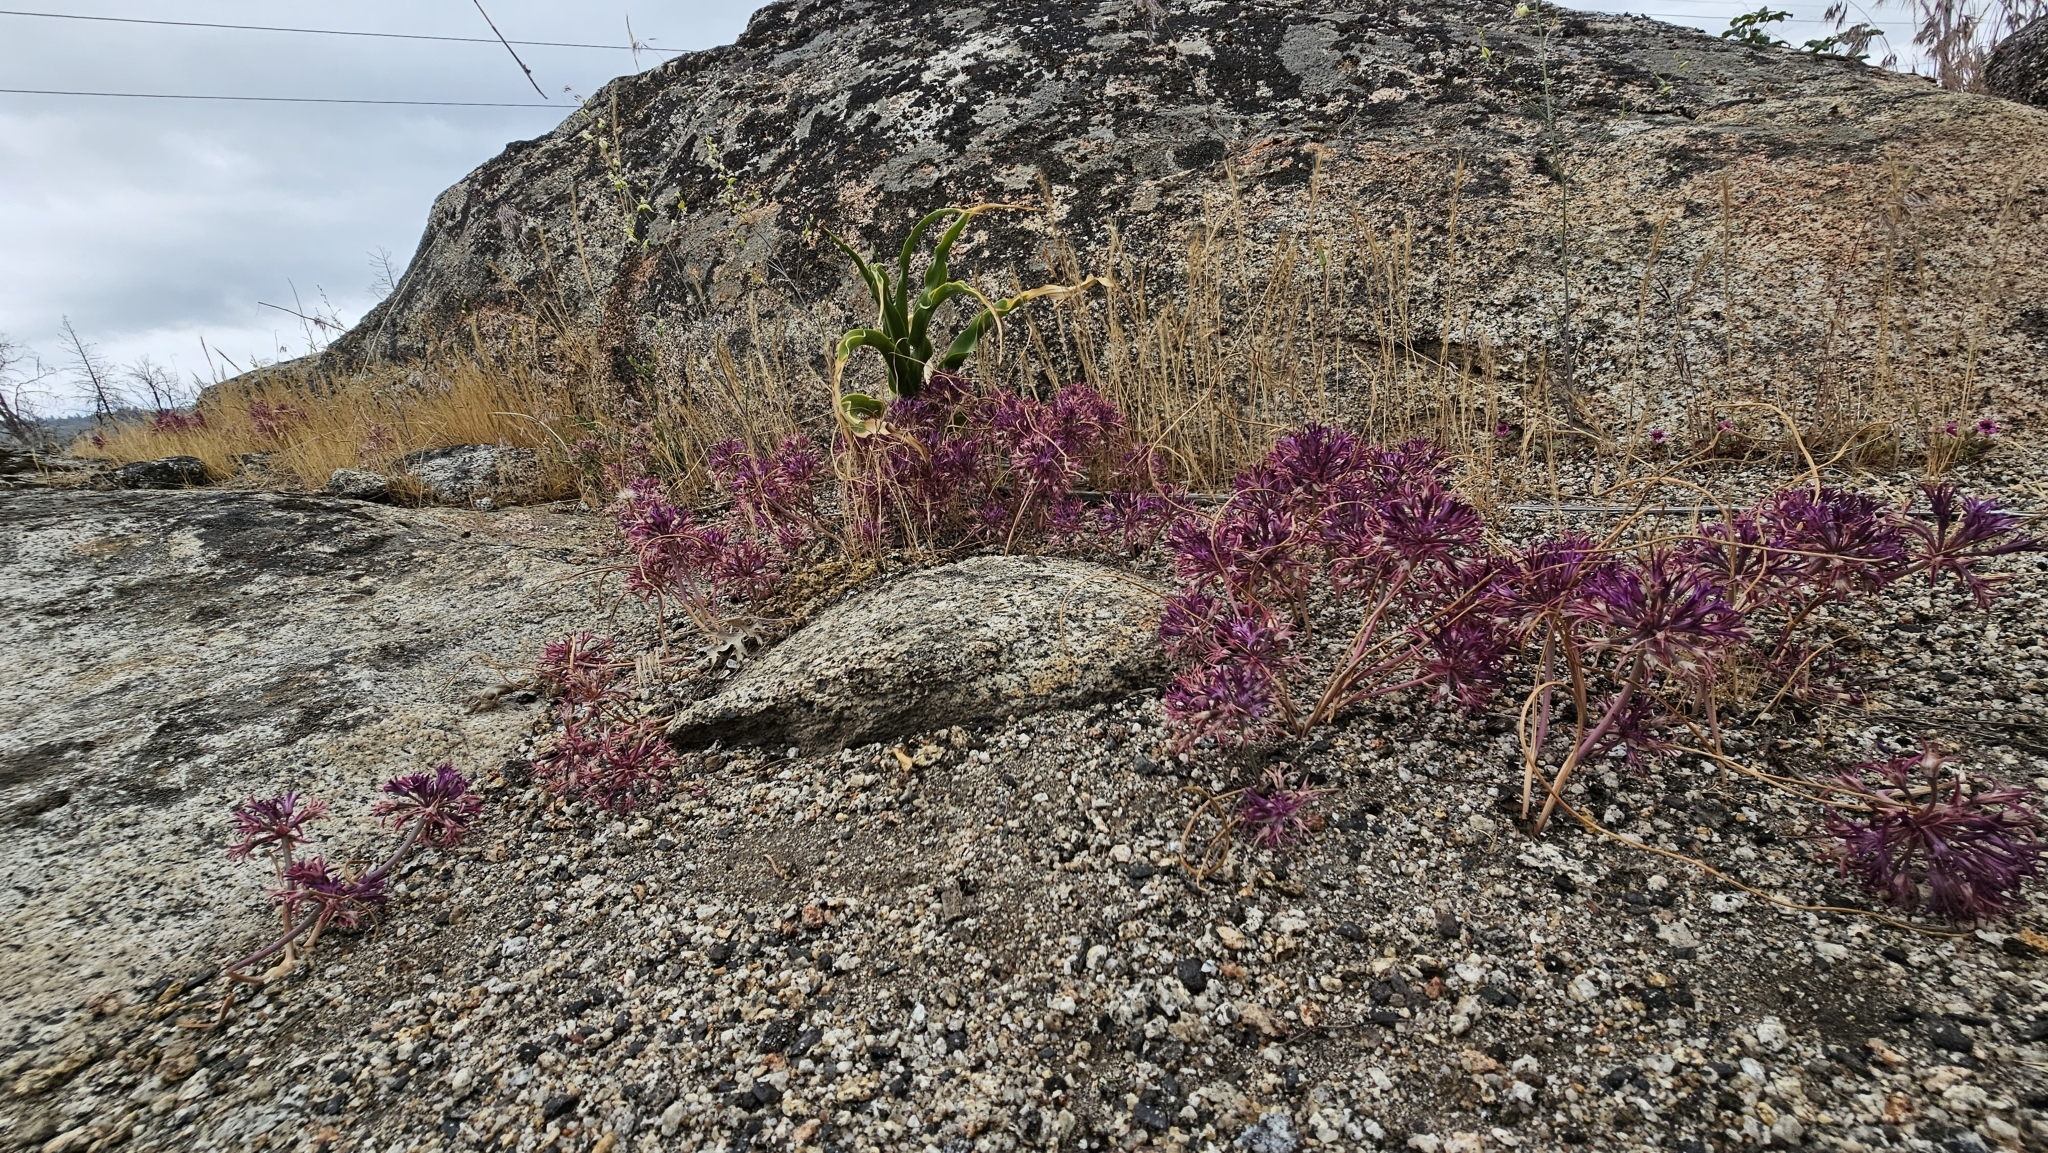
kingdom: Plantae
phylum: Tracheophyta
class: Liliopsida
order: Asparagales
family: Amaryllidaceae
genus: Allium
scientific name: Allium abramsii
